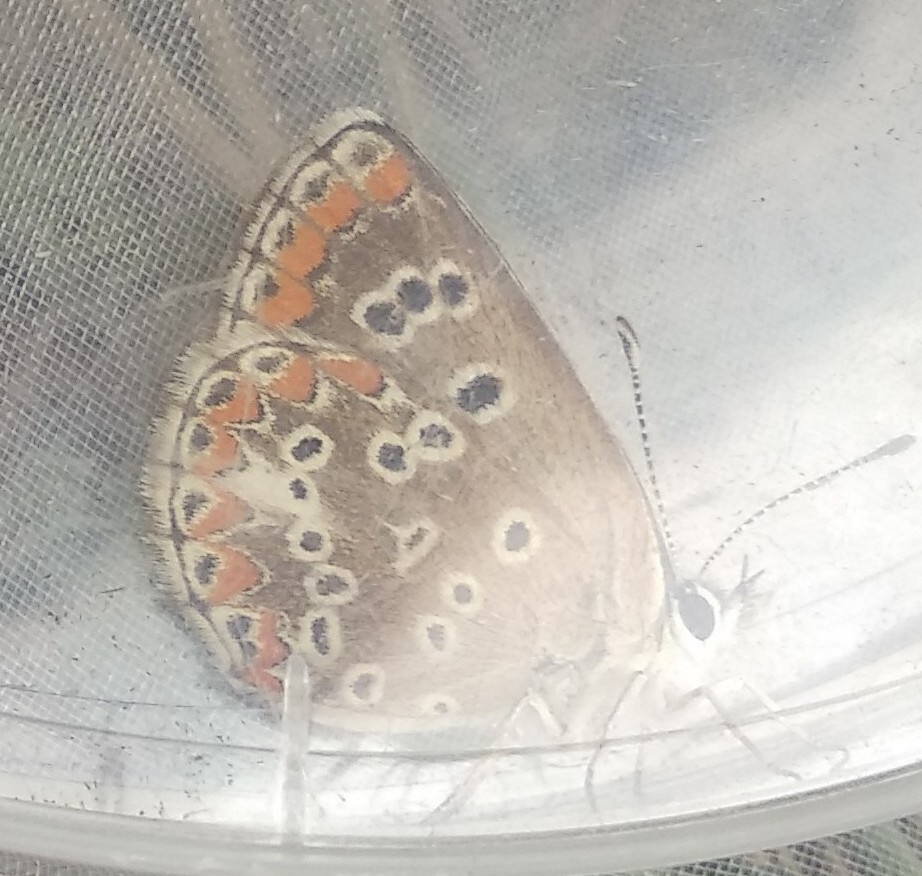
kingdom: Animalia
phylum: Arthropoda
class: Insecta
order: Lepidoptera
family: Lycaenidae
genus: Aricia
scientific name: Aricia cramera
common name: Eschscholtz´s brown  argus
